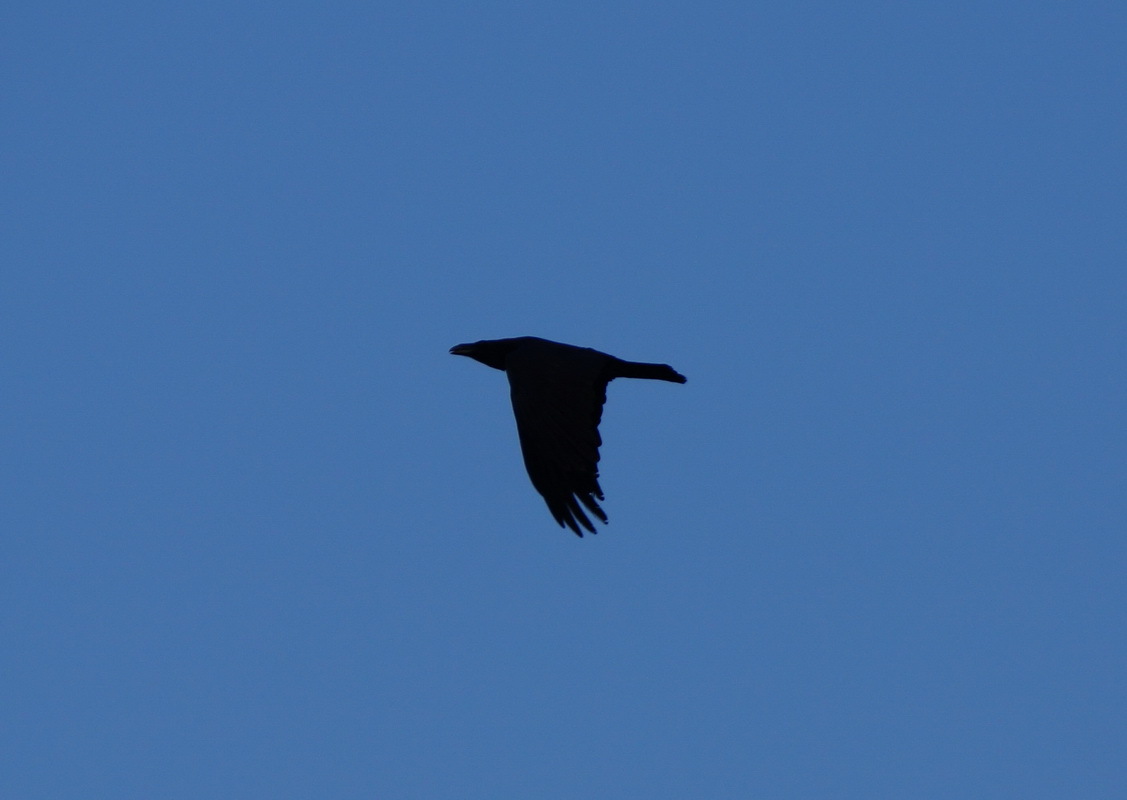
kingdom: Animalia
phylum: Chordata
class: Aves
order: Passeriformes
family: Corvidae
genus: Corvus
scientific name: Corvus corax
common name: Common raven
